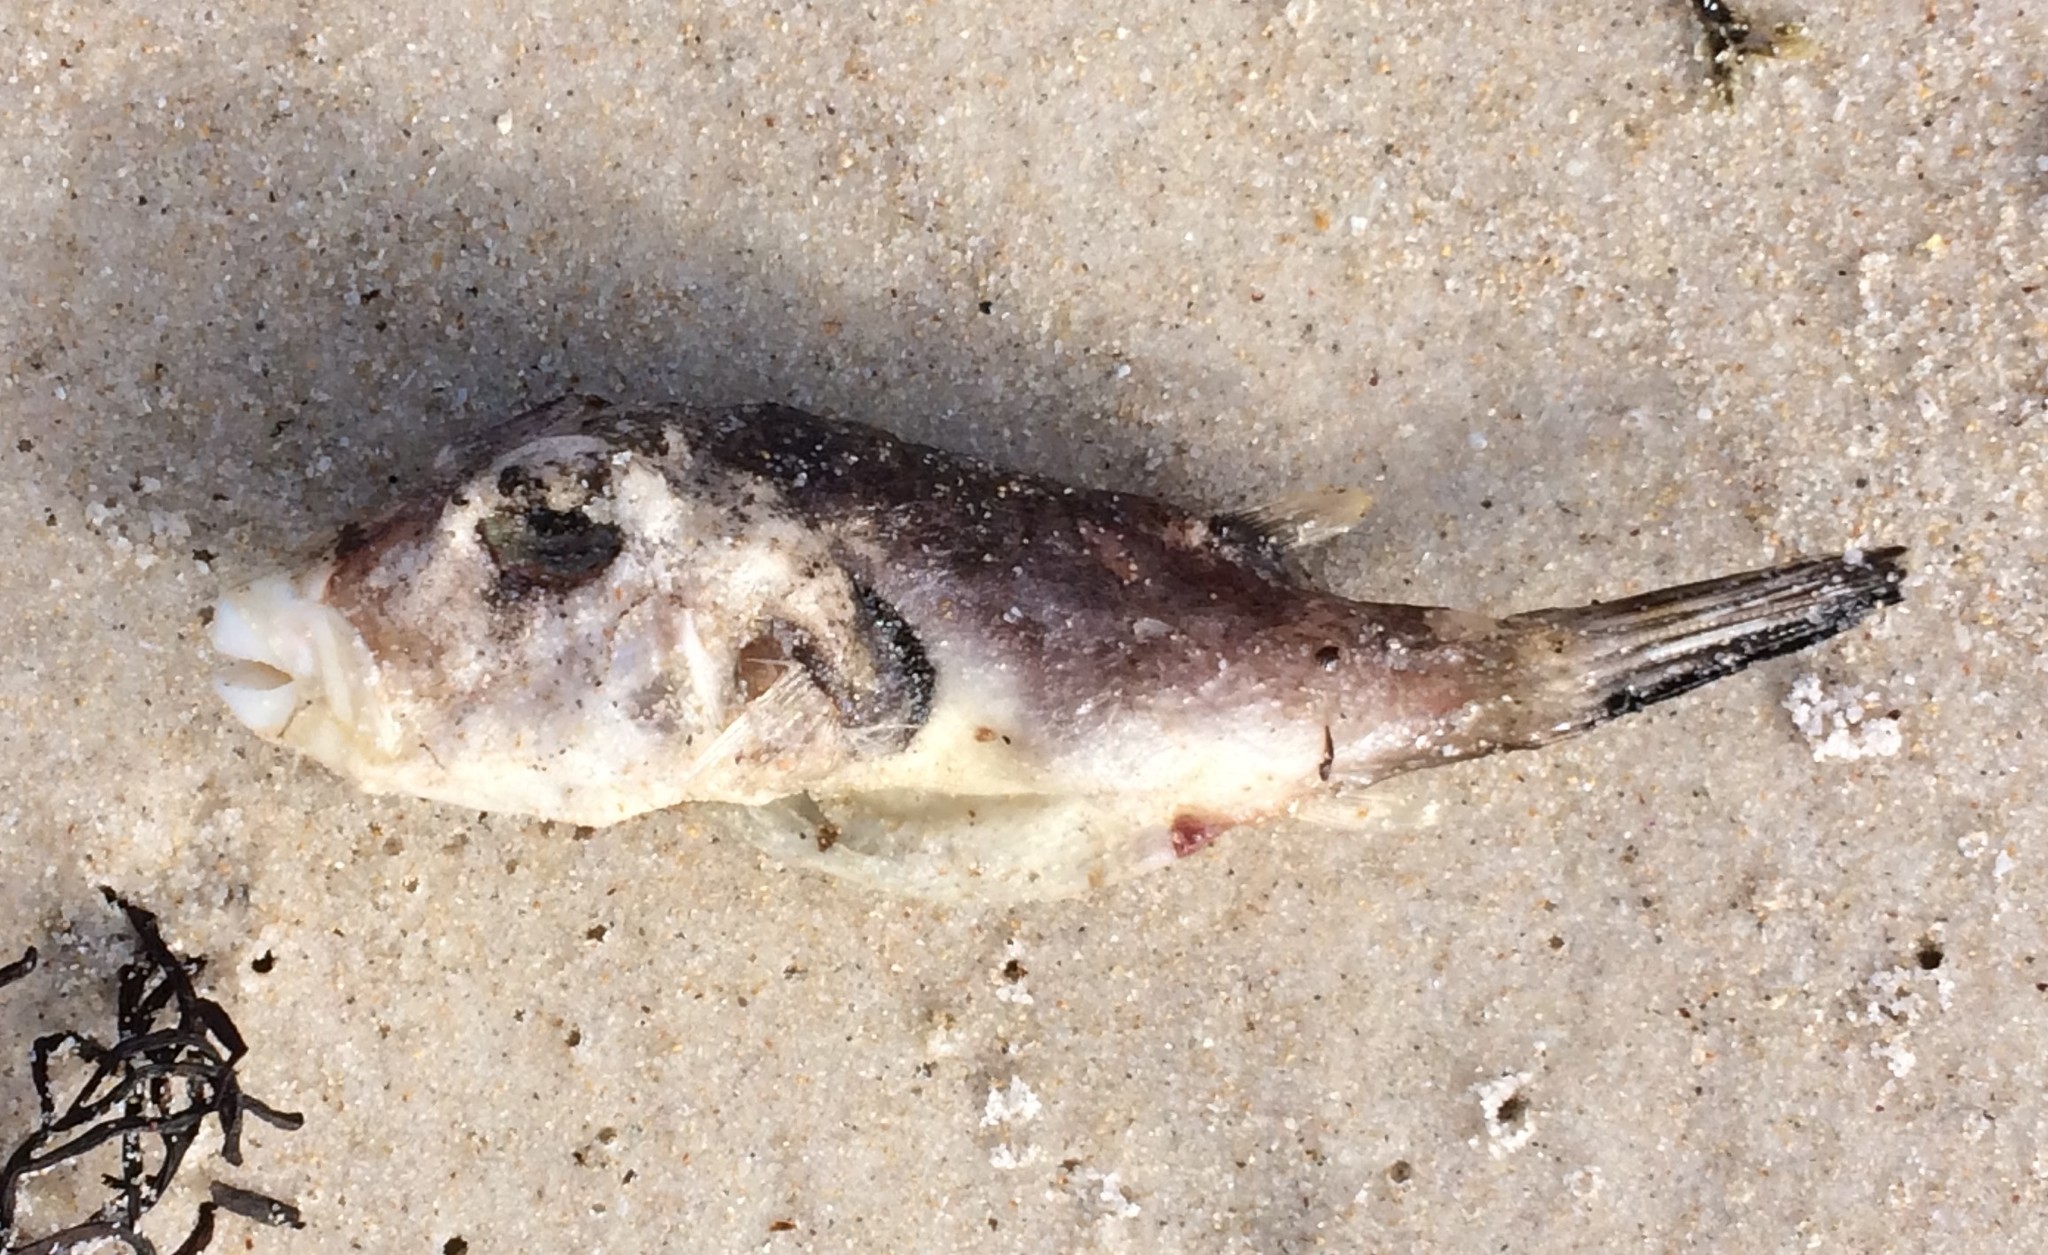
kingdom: Animalia
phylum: Chordata
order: Tetraodontiformes
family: Tetraodontidae
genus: Omegophora
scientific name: Omegophora armilla
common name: Ringed pufferfish
